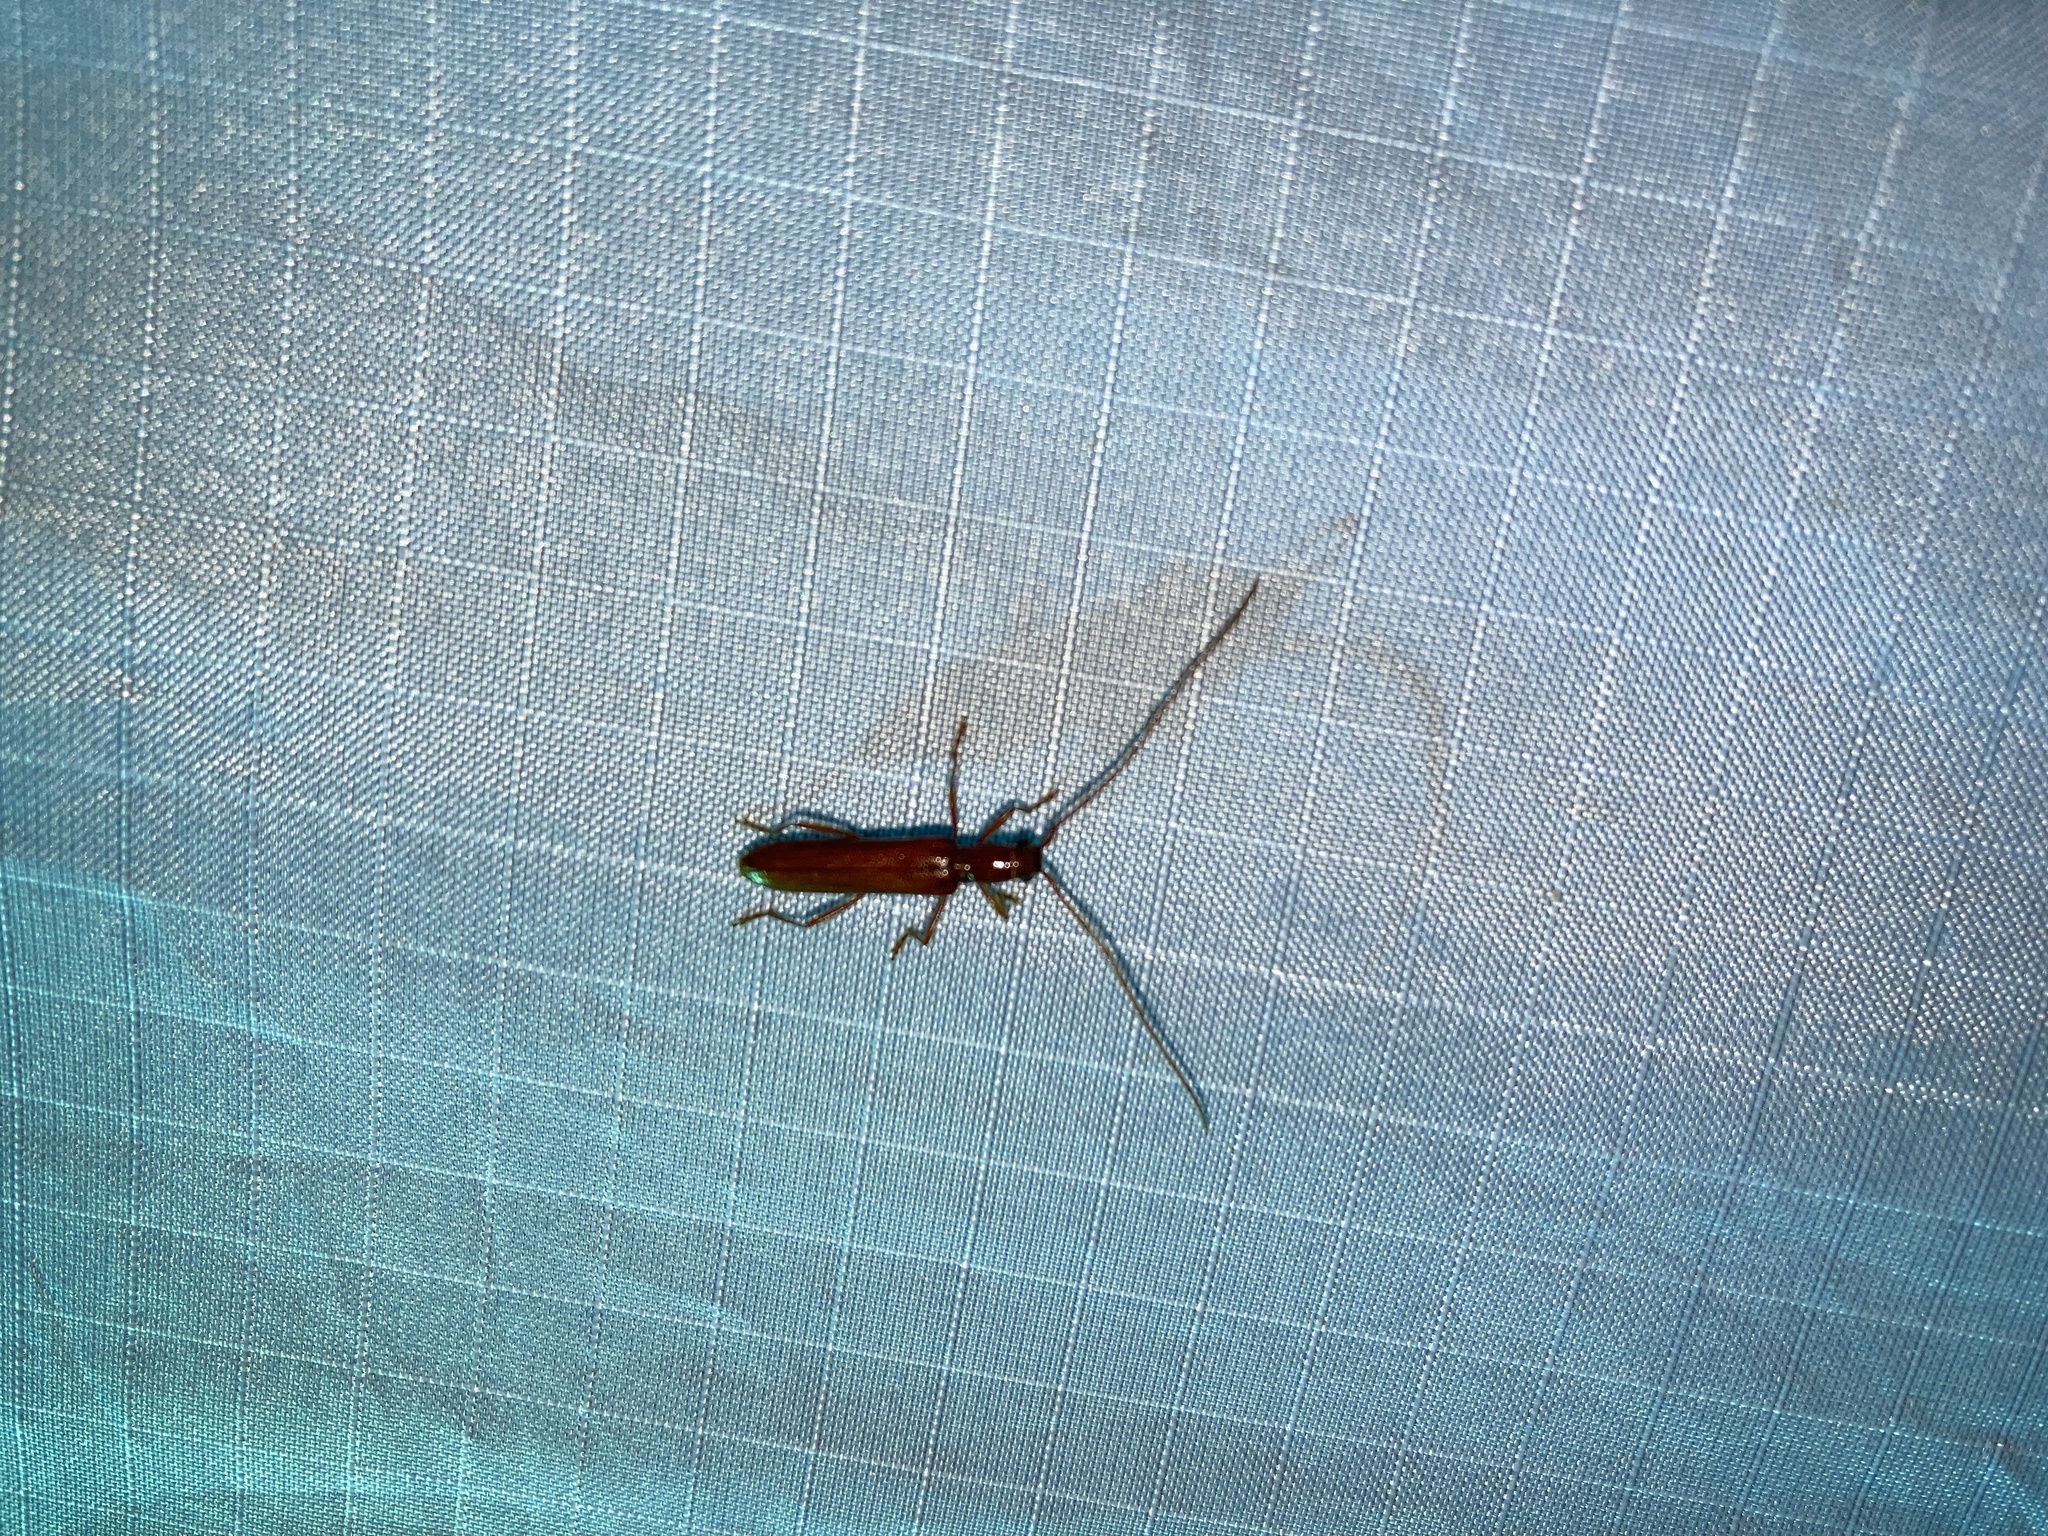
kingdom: Animalia
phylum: Arthropoda
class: Insecta
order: Coleoptera
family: Cerambycidae
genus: Psyrassa
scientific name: Psyrassa unicolor
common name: Branch pruner
